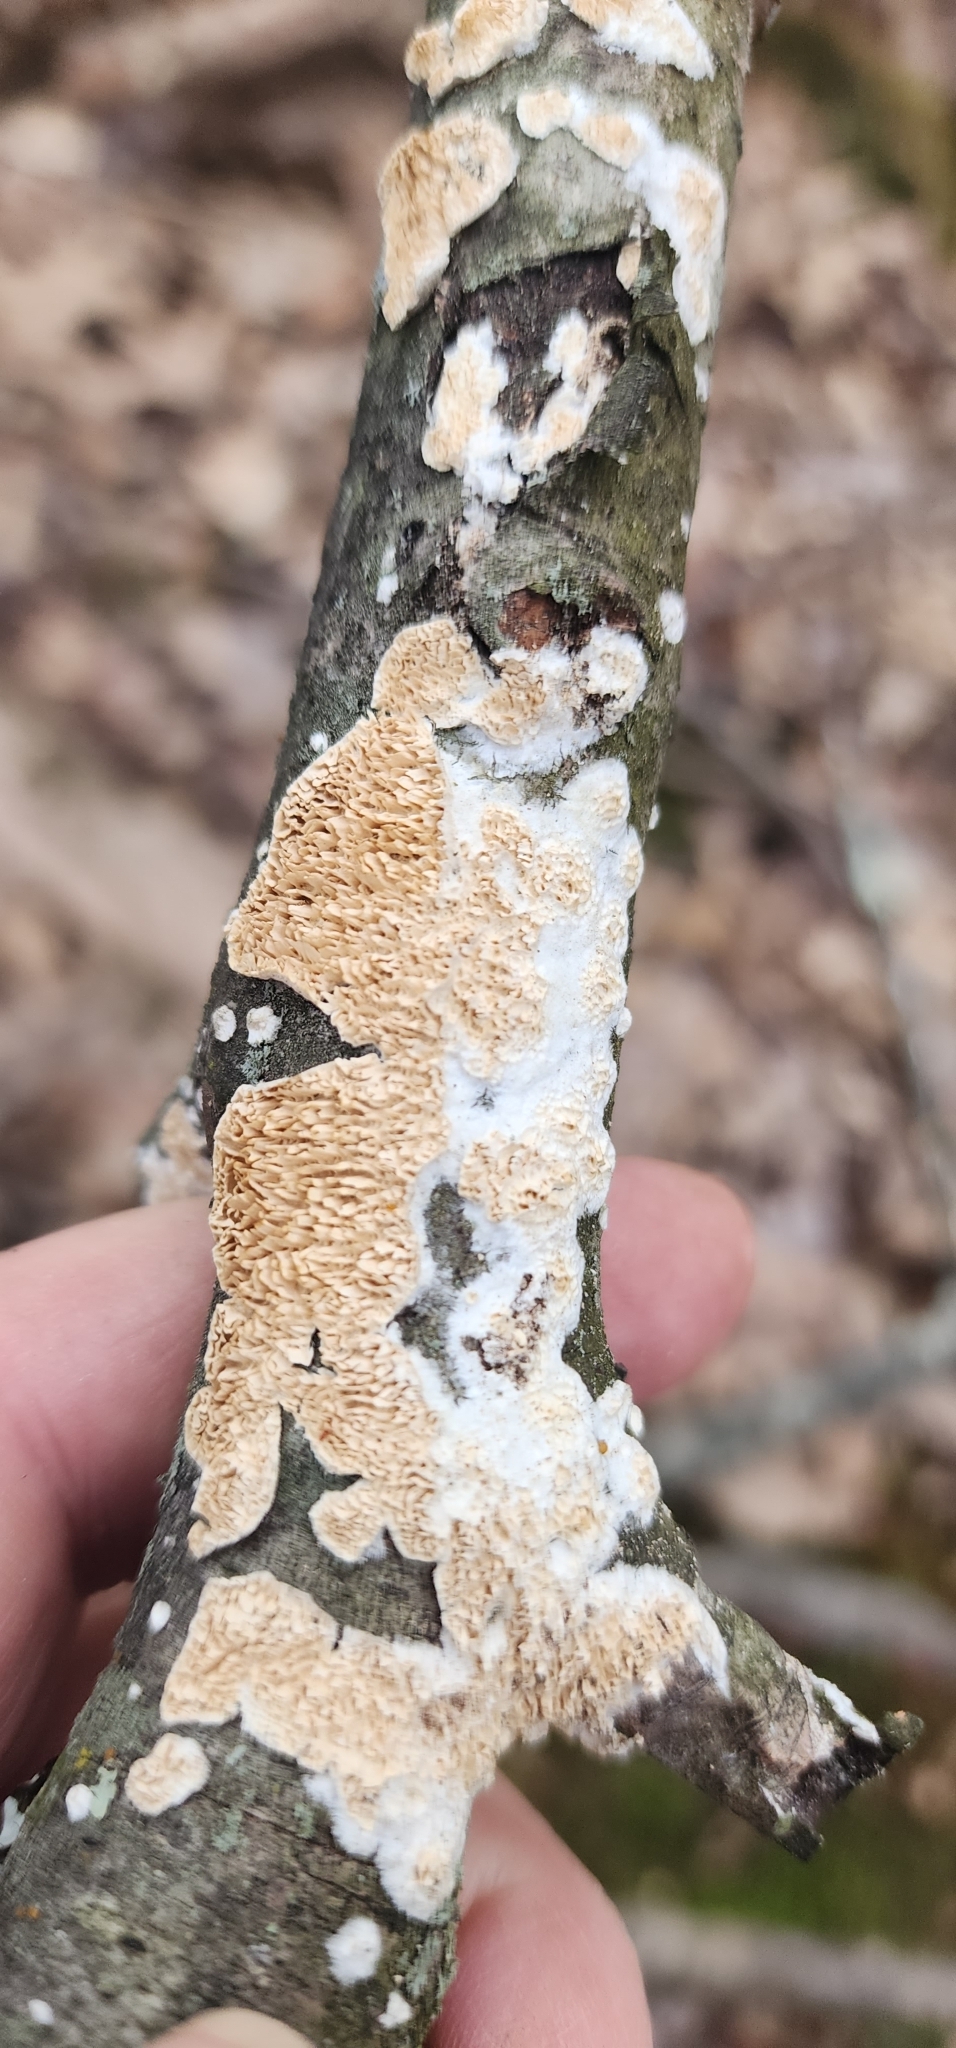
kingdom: Fungi
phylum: Basidiomycota
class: Agaricomycetes
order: Polyporales
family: Irpicaceae
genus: Irpex
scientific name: Irpex lacteus
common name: Milk-white toothed polypore
